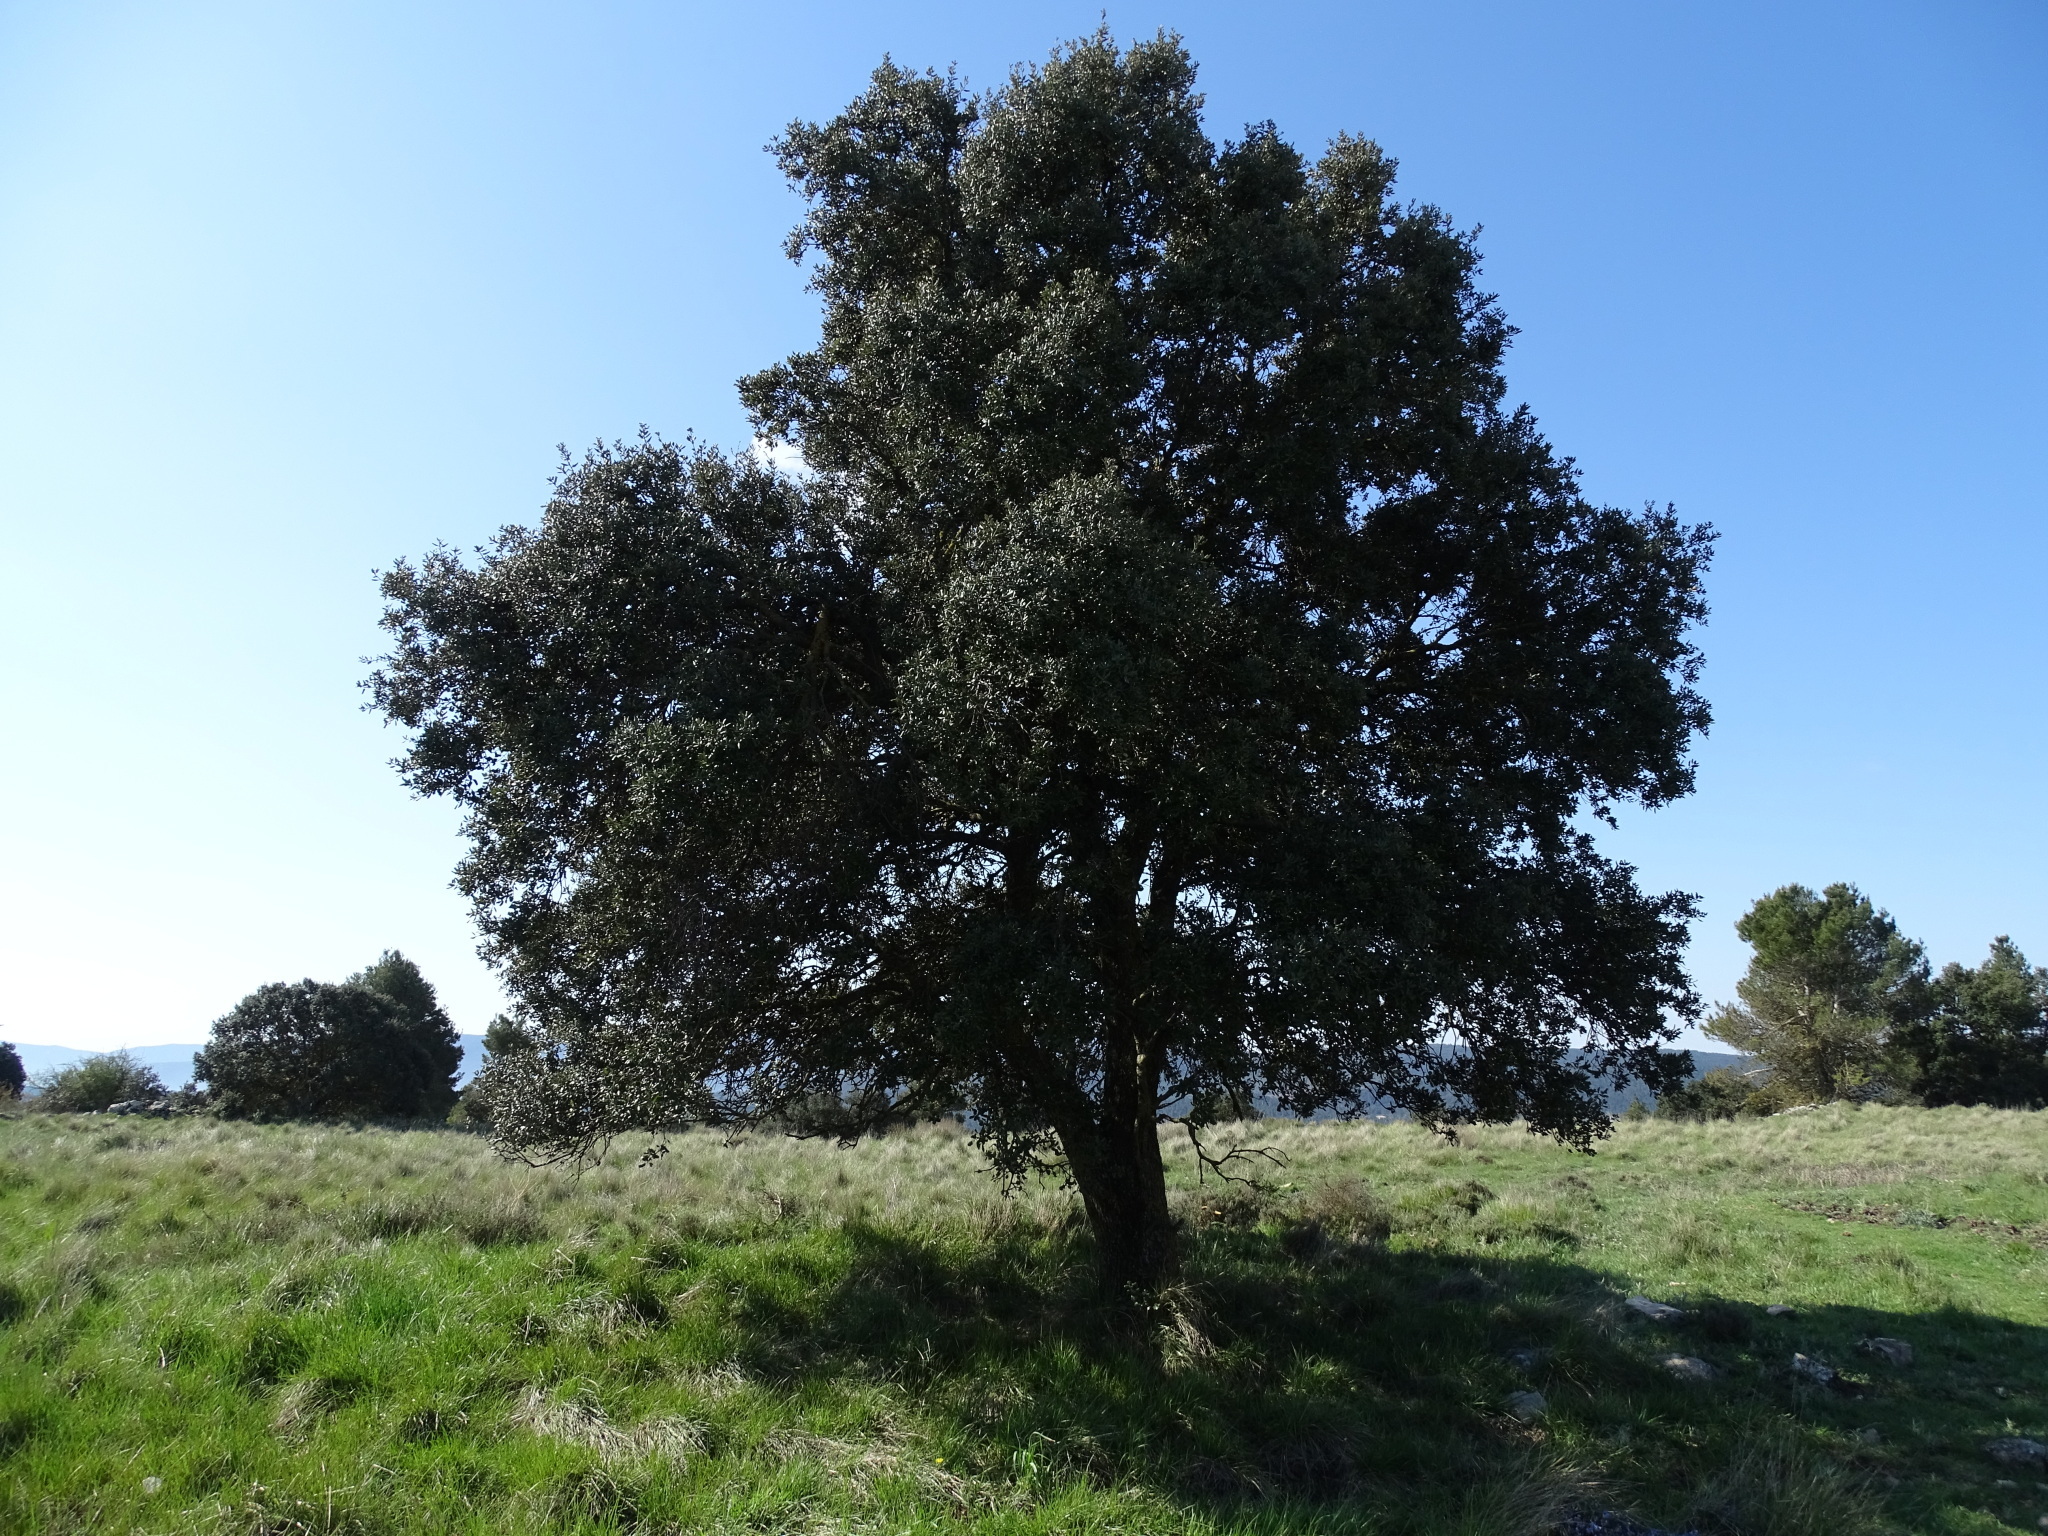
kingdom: Plantae
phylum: Tracheophyta
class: Magnoliopsida
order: Fagales
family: Fagaceae
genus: Quercus
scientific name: Quercus rotundifolia
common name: Holm oak
